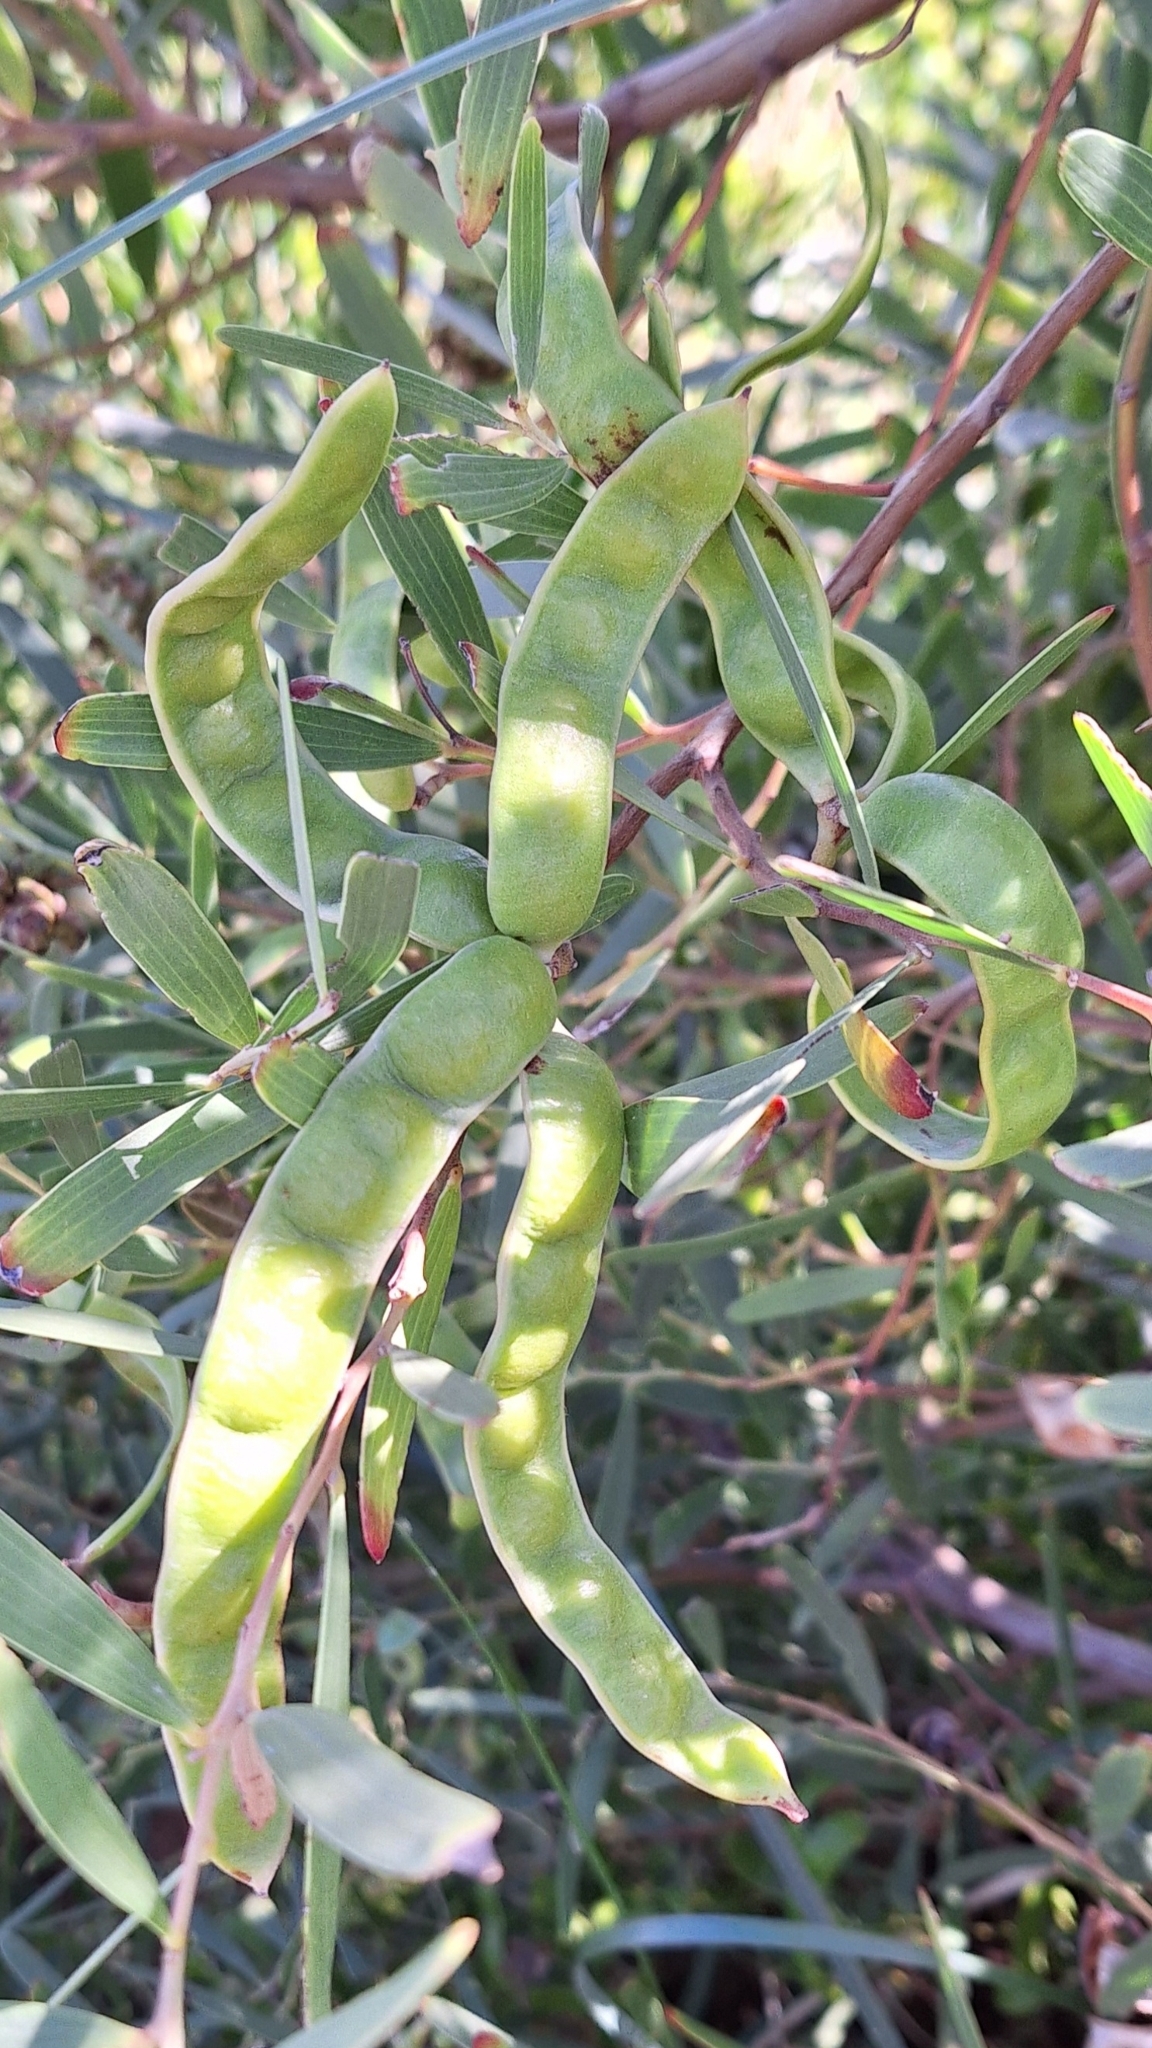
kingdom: Plantae
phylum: Tracheophyta
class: Magnoliopsida
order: Fabales
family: Fabaceae
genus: Acacia
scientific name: Acacia cyclops
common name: Coastal wattle
